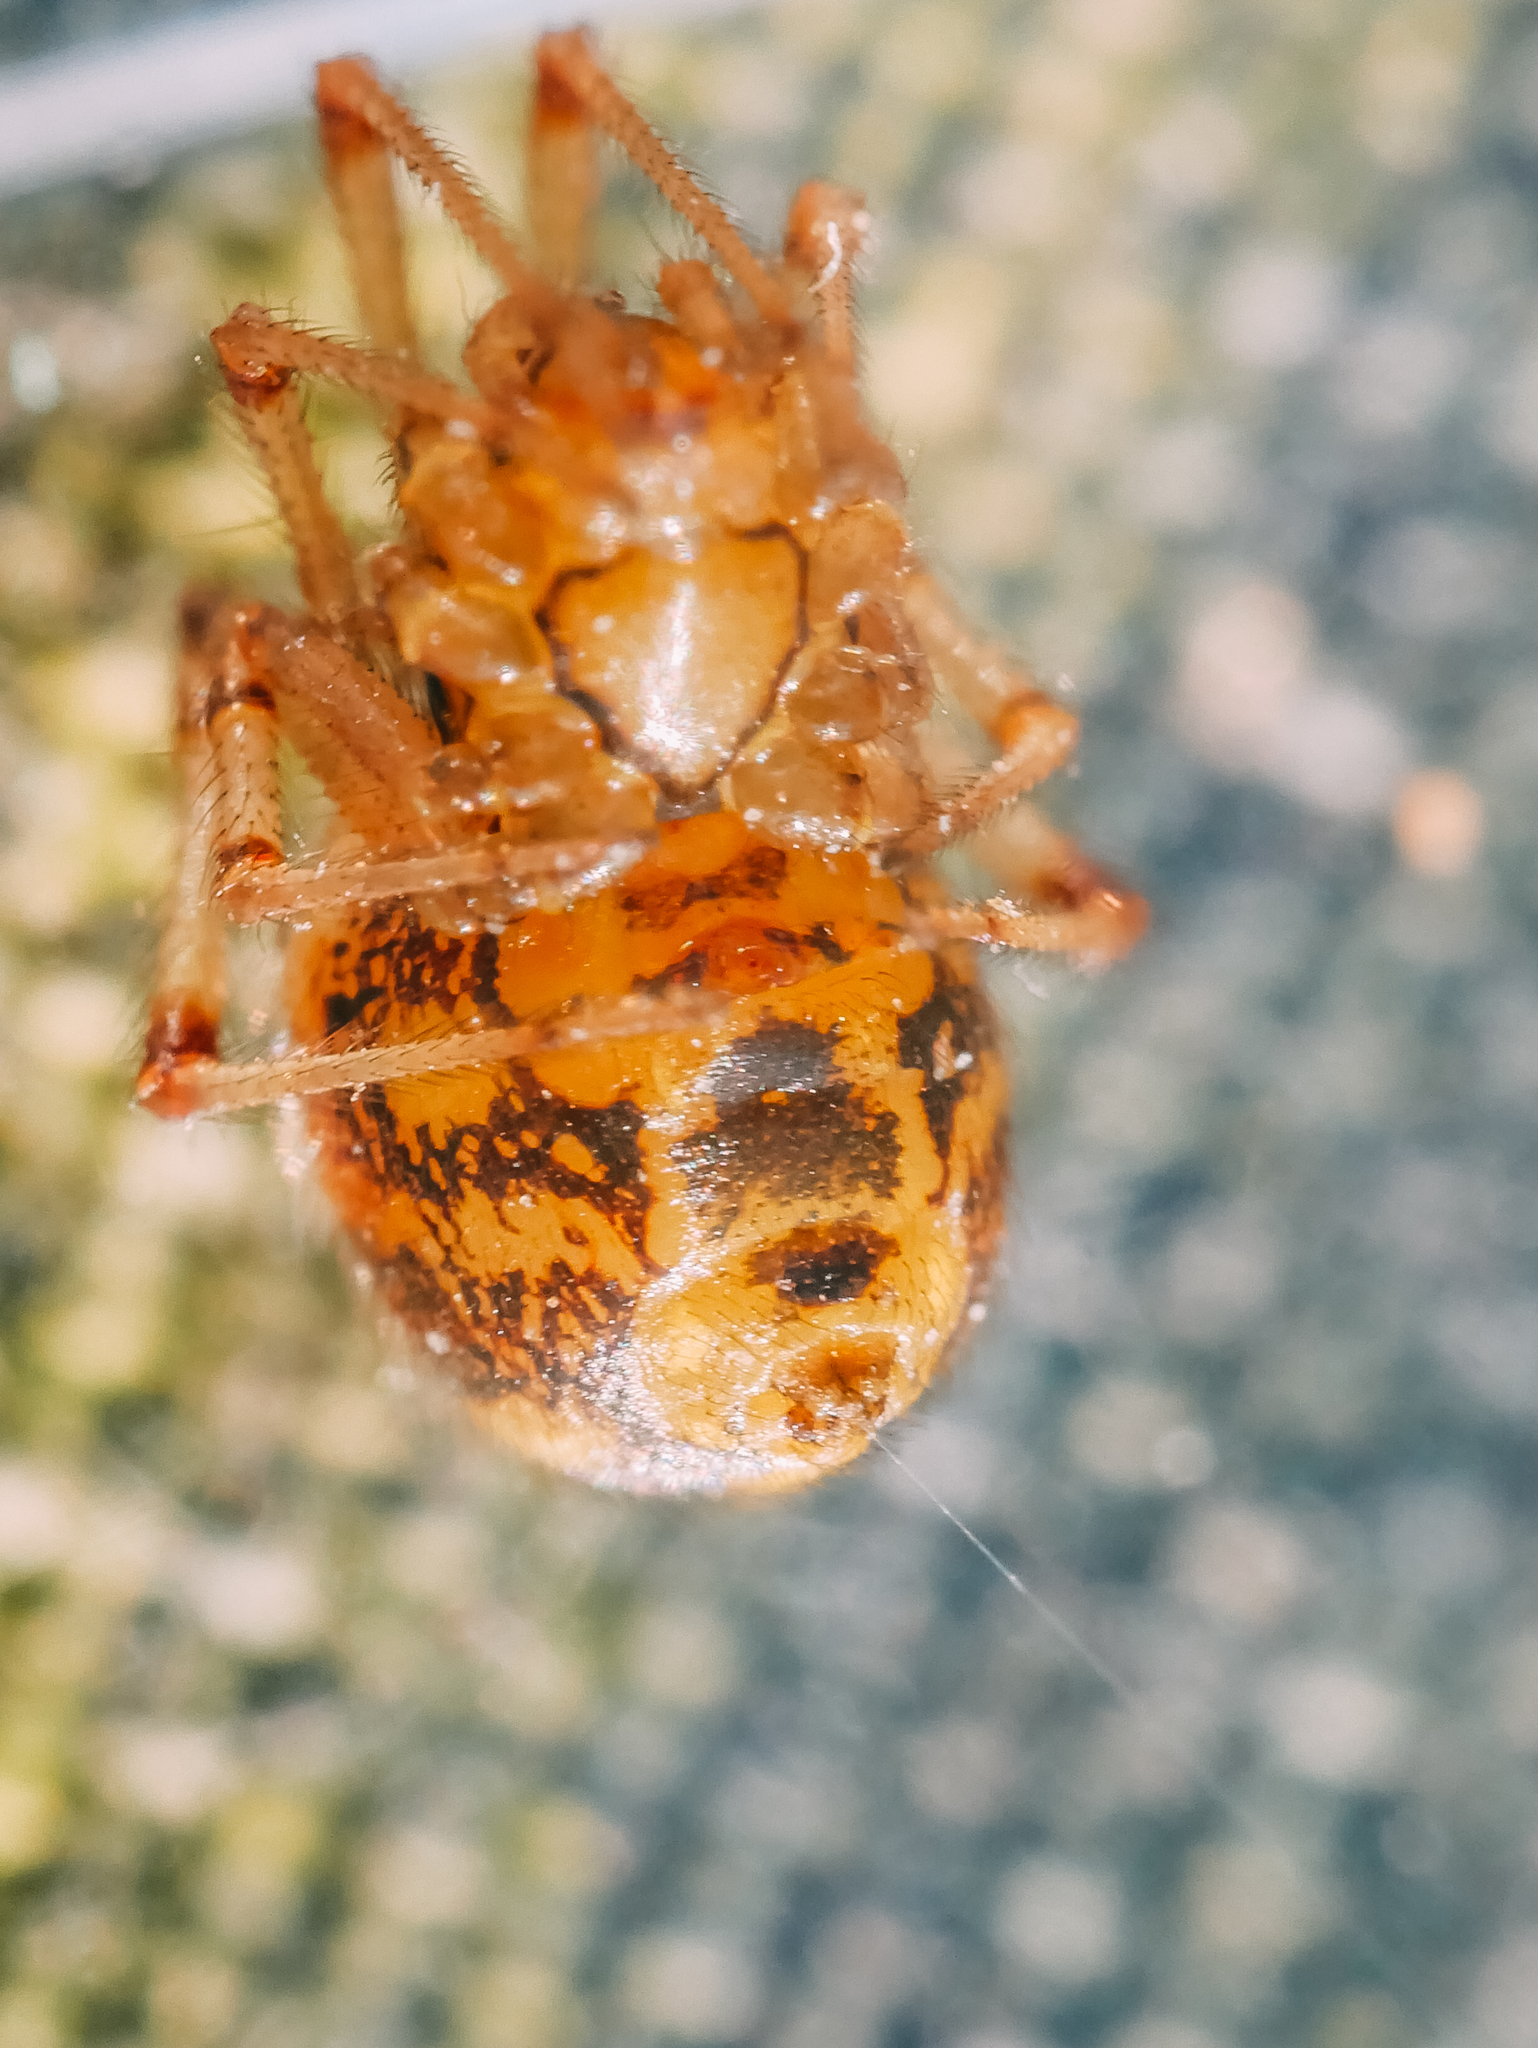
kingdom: Animalia
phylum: Arthropoda
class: Arachnida
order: Araneae
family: Theridiidae
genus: Phylloneta
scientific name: Phylloneta sisyphia
